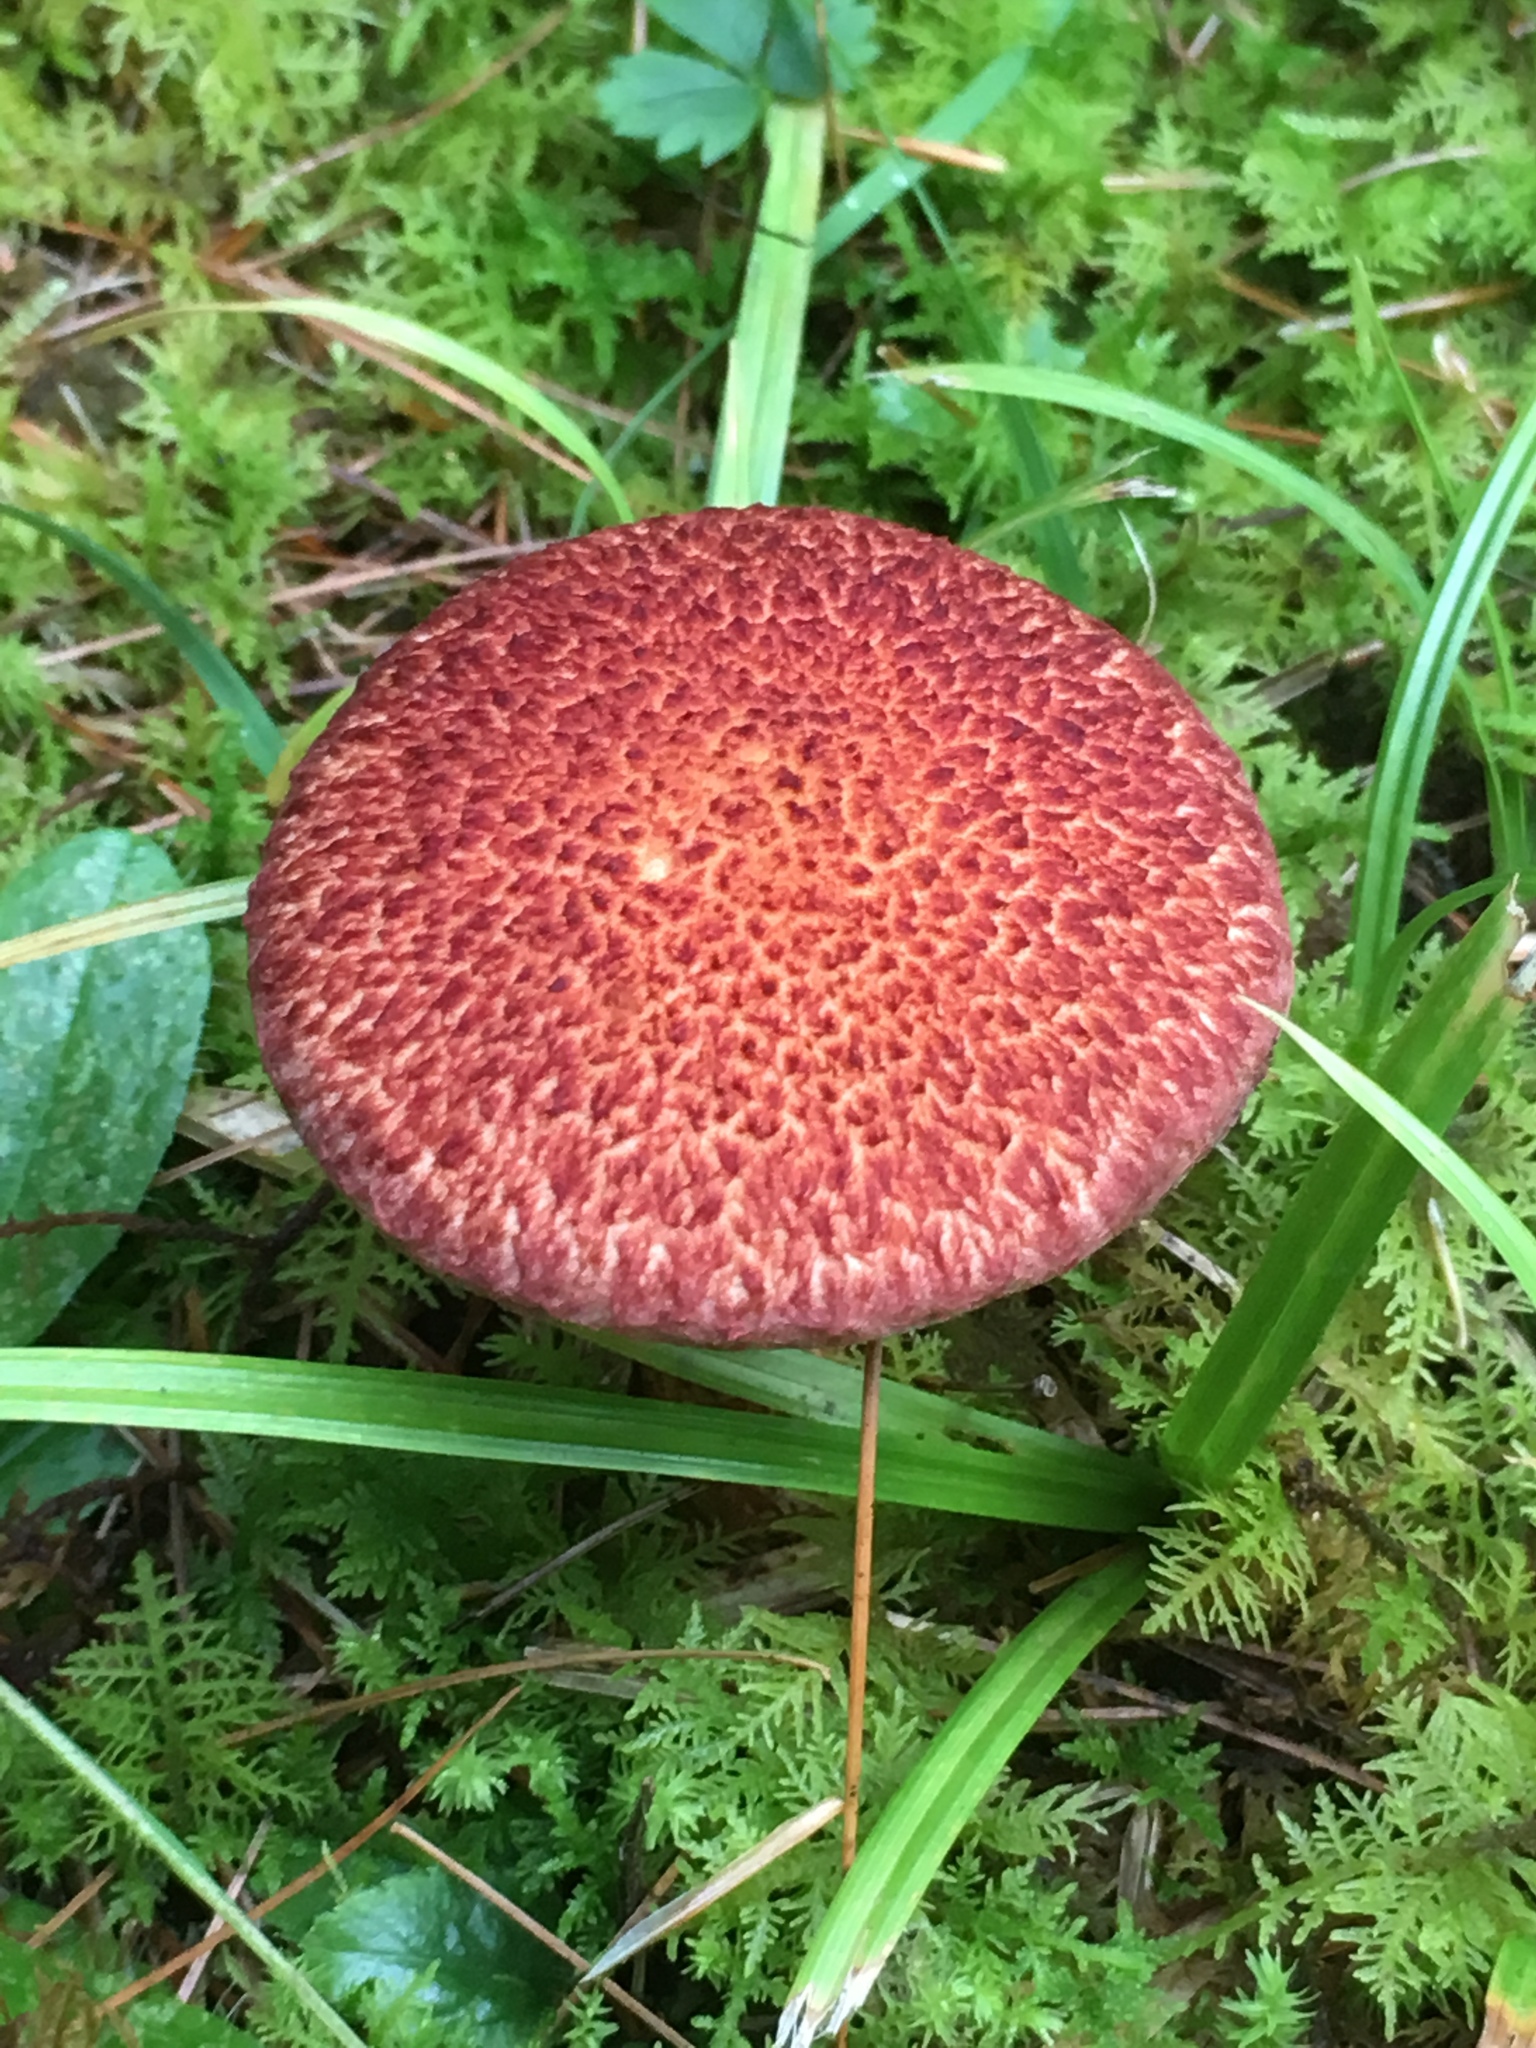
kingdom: Fungi
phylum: Basidiomycota
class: Agaricomycetes
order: Boletales
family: Suillaceae
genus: Suillus
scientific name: Suillus spraguei
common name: Painted suillus
